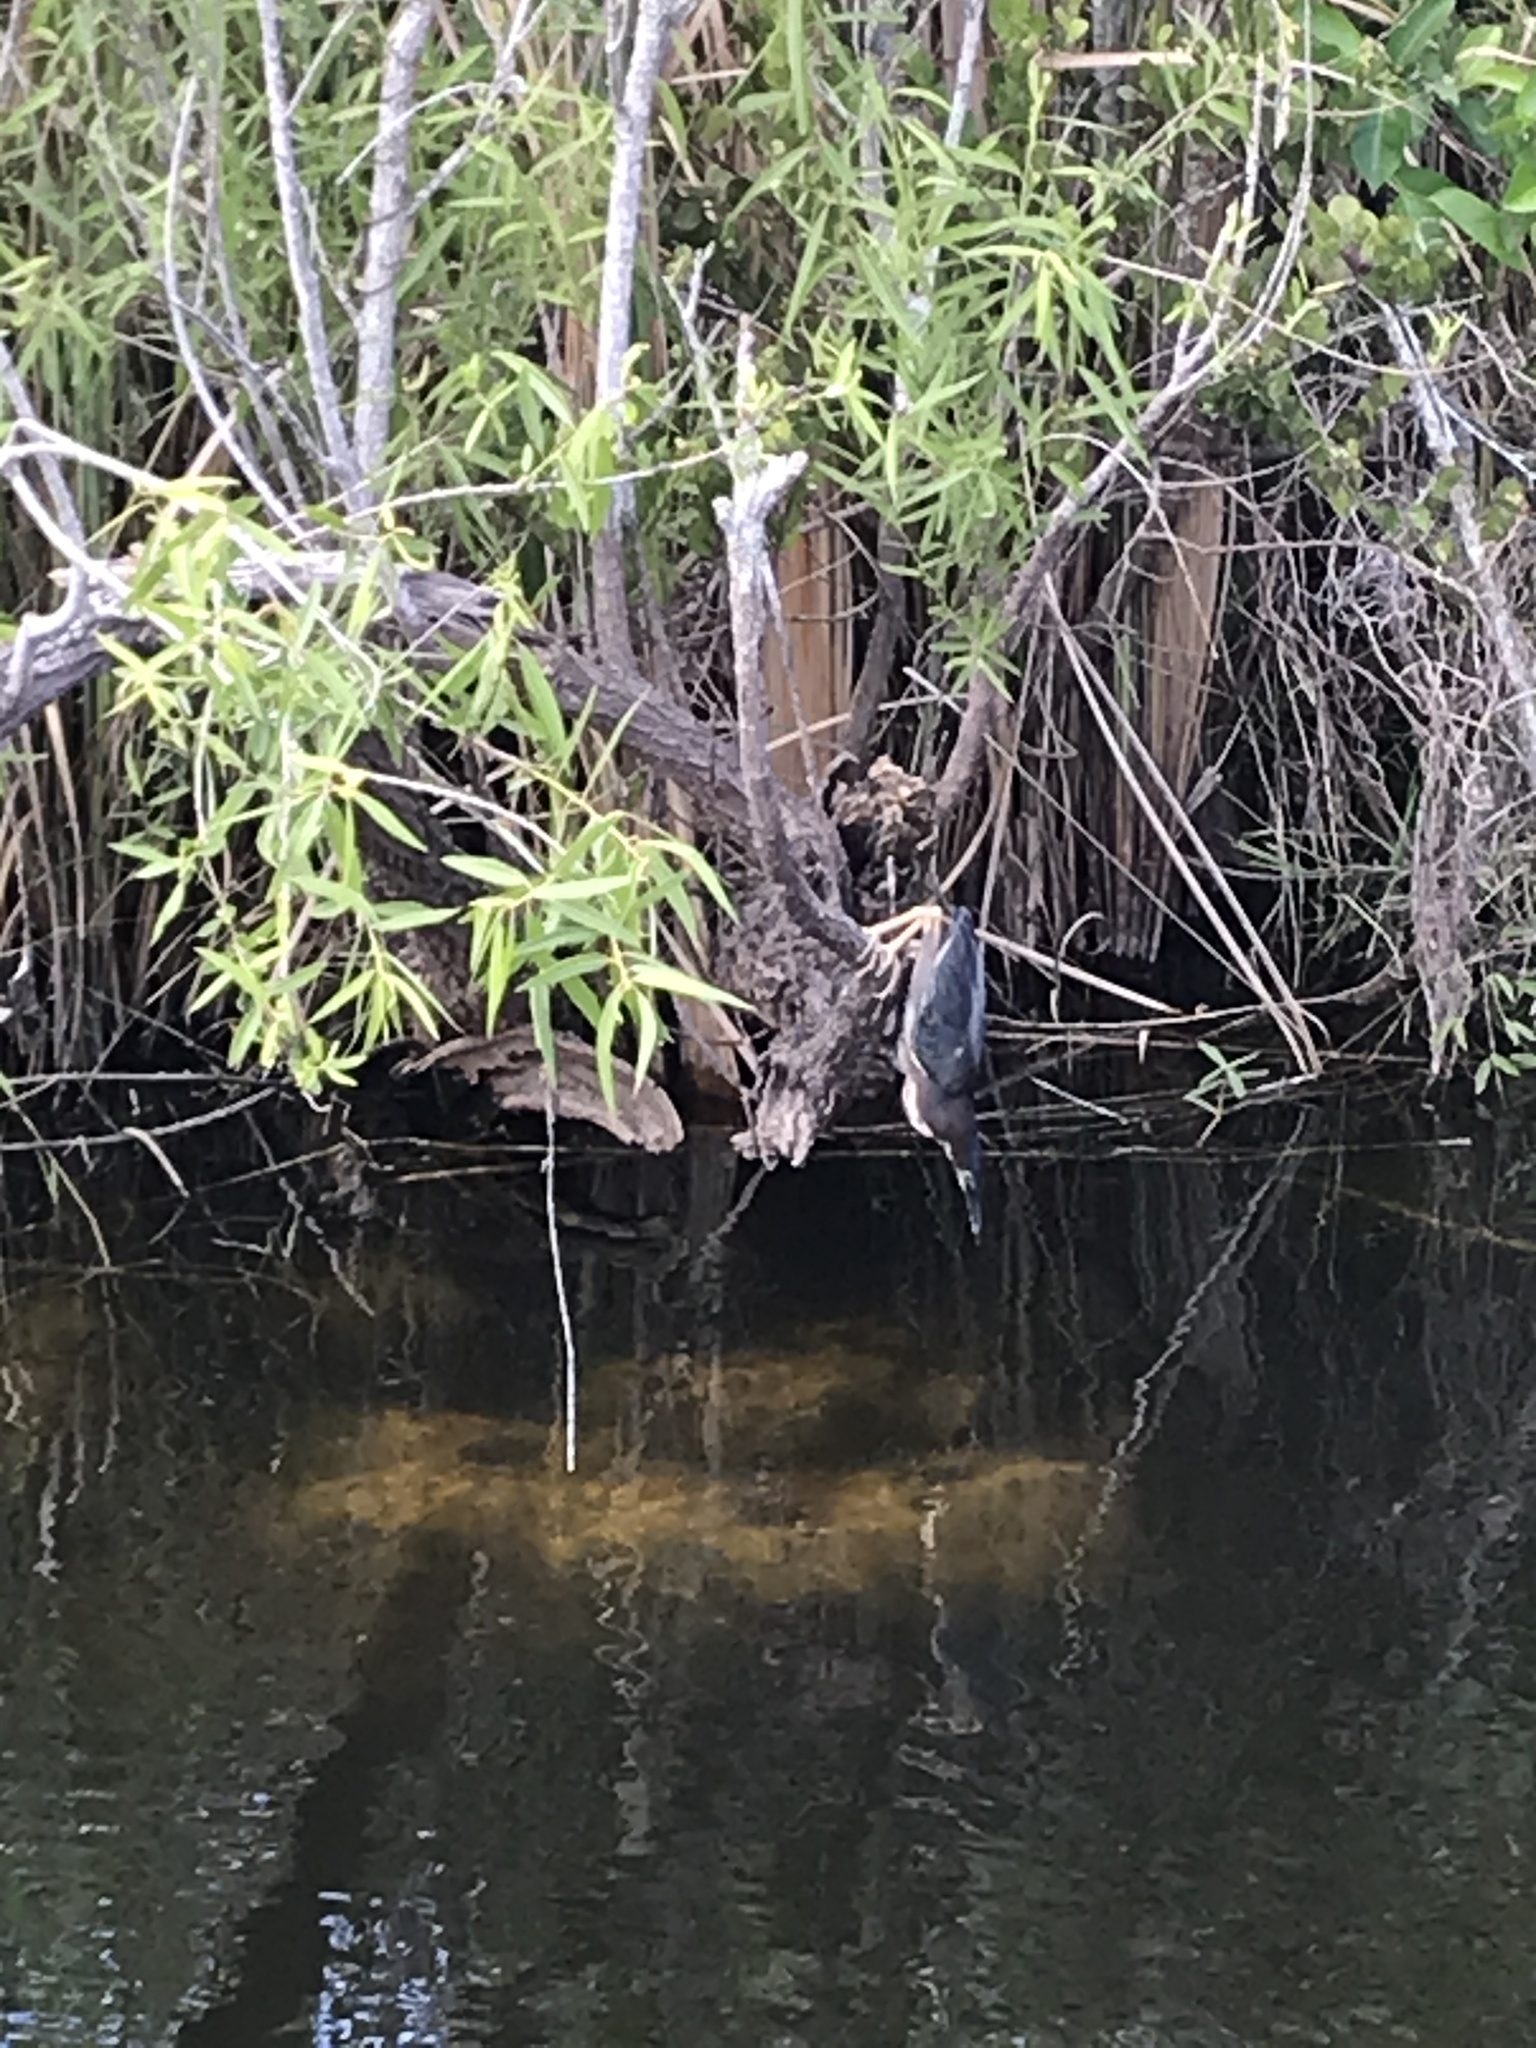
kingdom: Animalia
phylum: Chordata
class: Aves
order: Pelecaniformes
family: Ardeidae
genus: Butorides
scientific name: Butorides virescens
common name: Green heron
